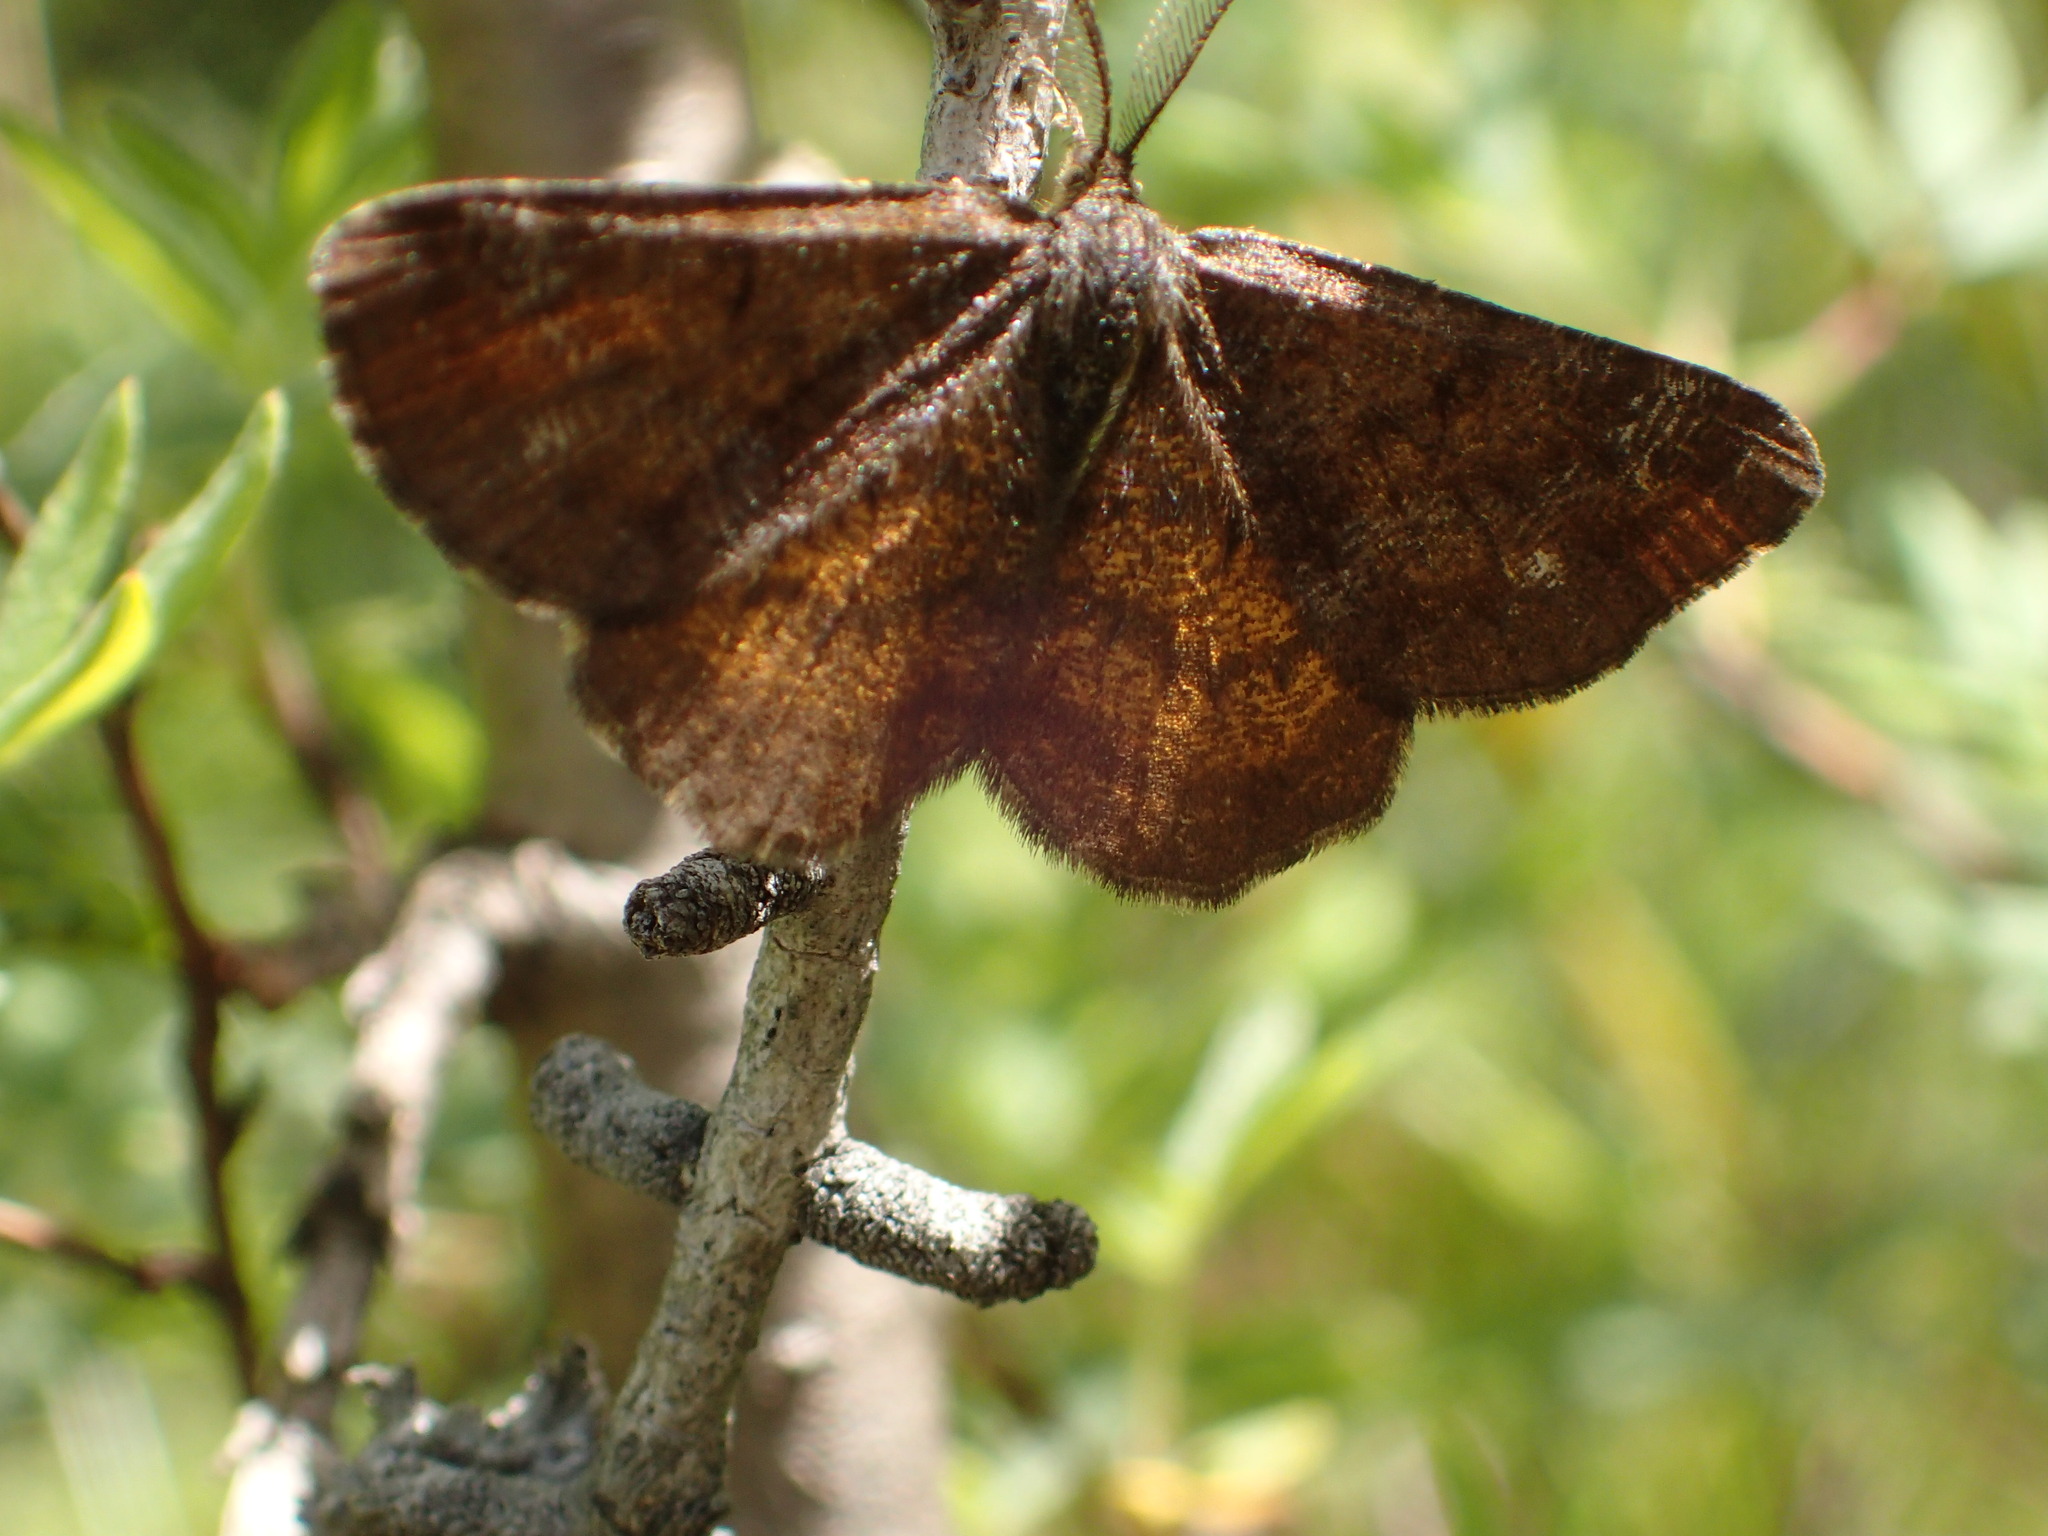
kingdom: Animalia
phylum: Arthropoda
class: Insecta
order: Lepidoptera
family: Geometridae
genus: Ematurga
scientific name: Ematurga amitaria
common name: Cranberry spanworm moth
